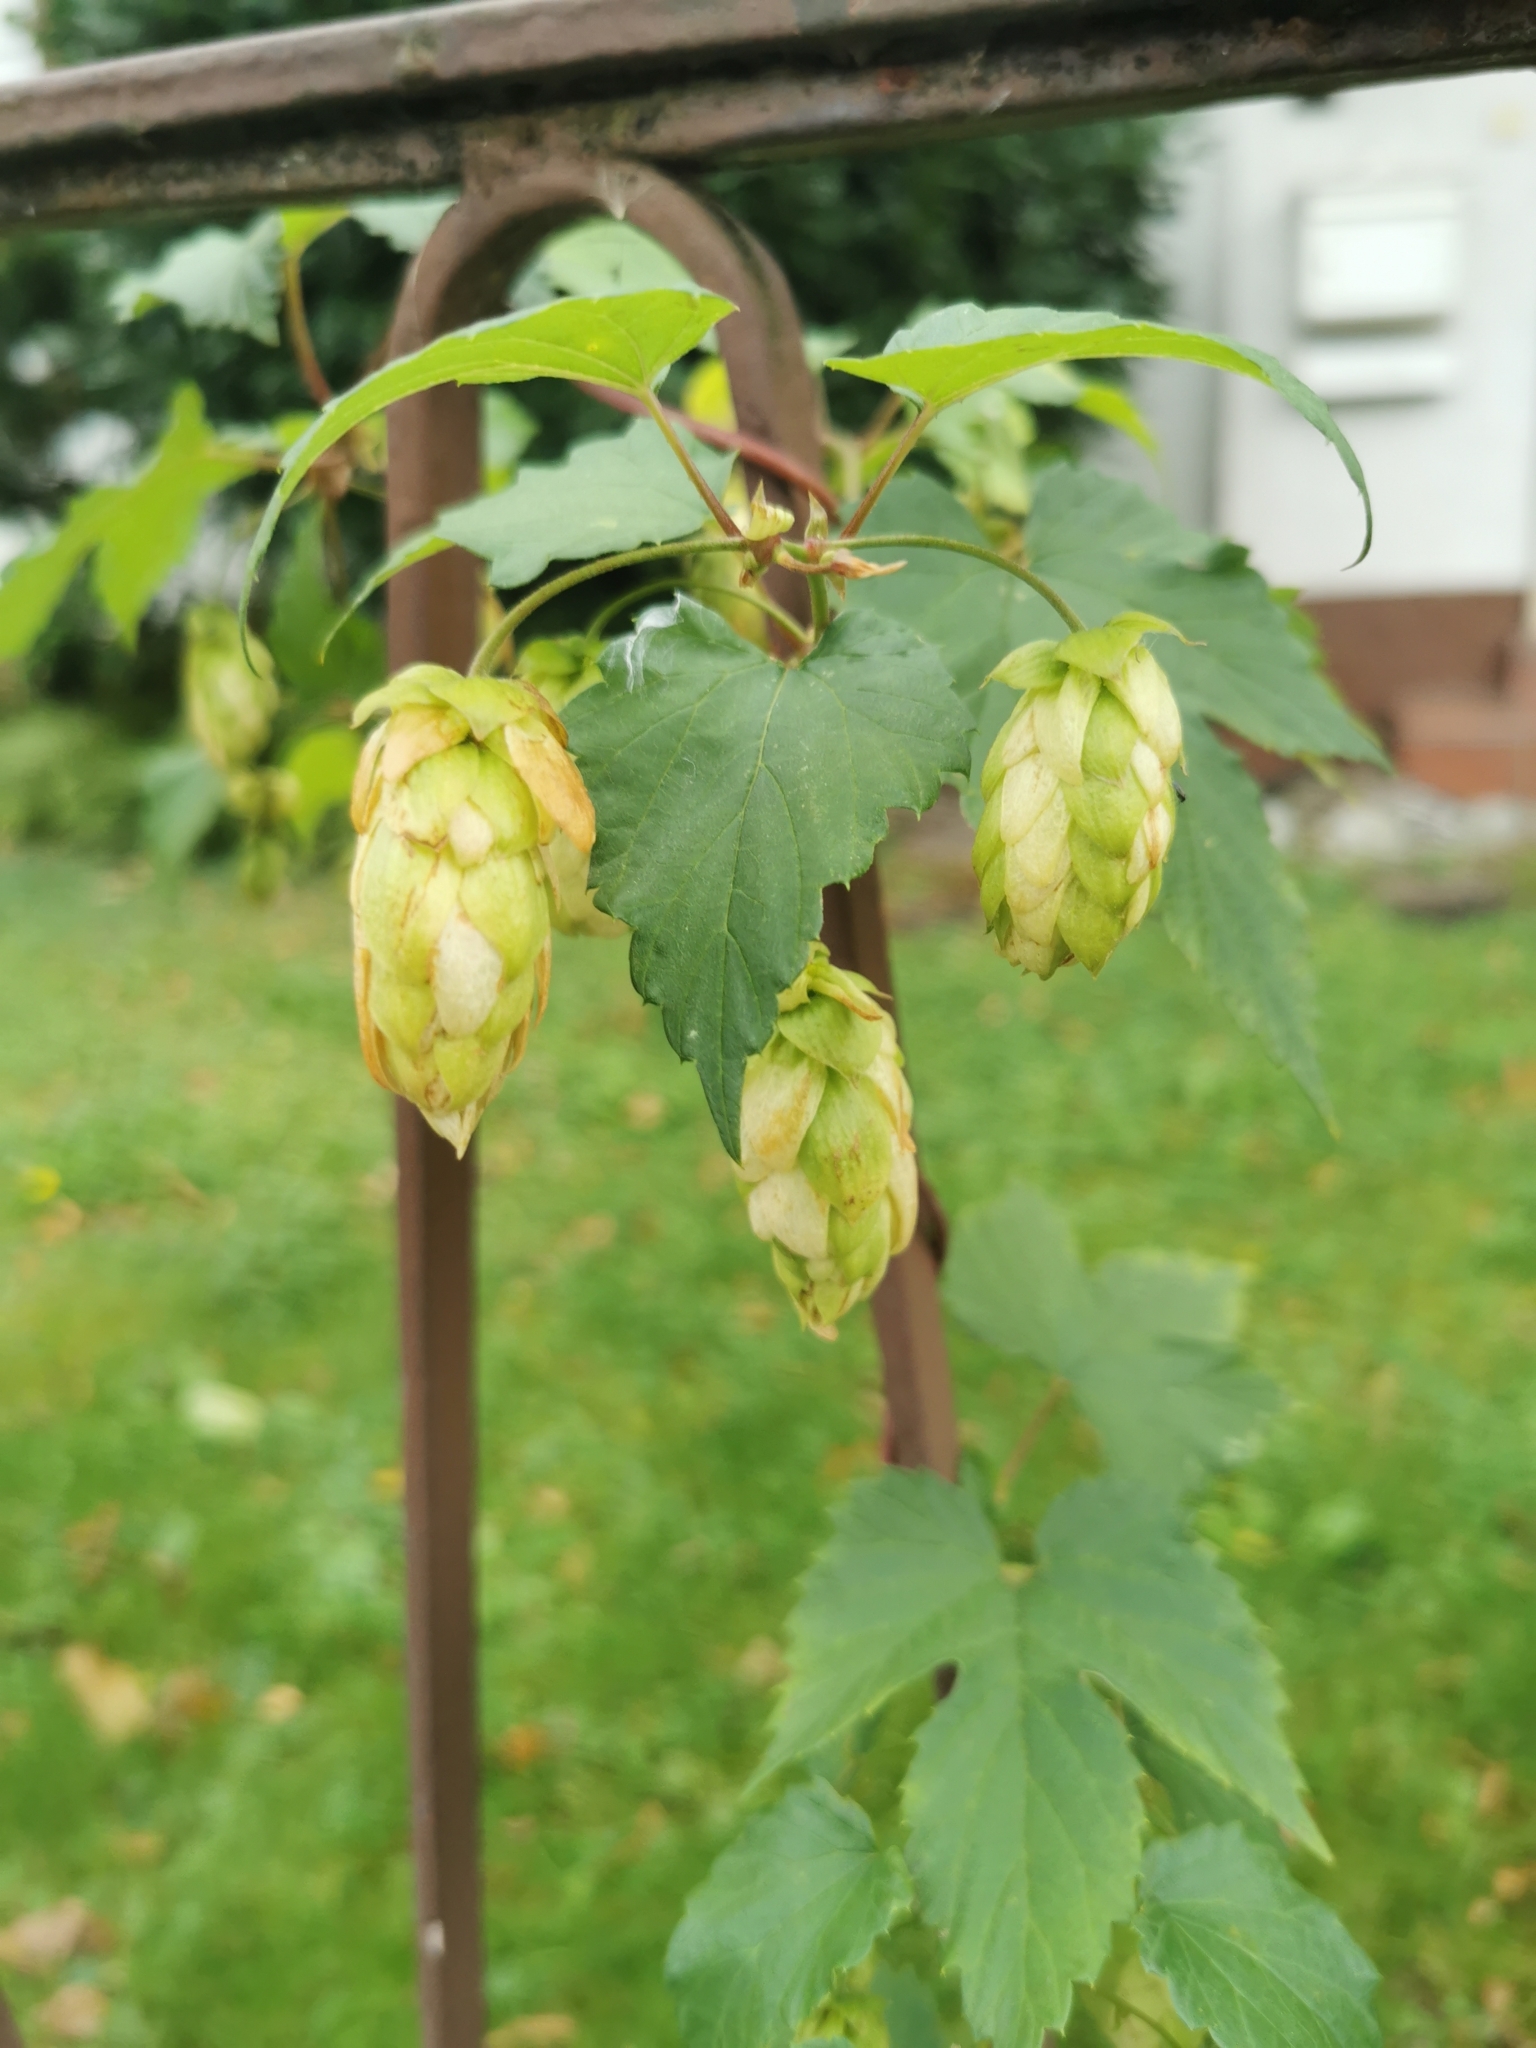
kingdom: Plantae
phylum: Tracheophyta
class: Magnoliopsida
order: Rosales
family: Cannabaceae
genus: Humulus
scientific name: Humulus lupulus
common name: Hop
